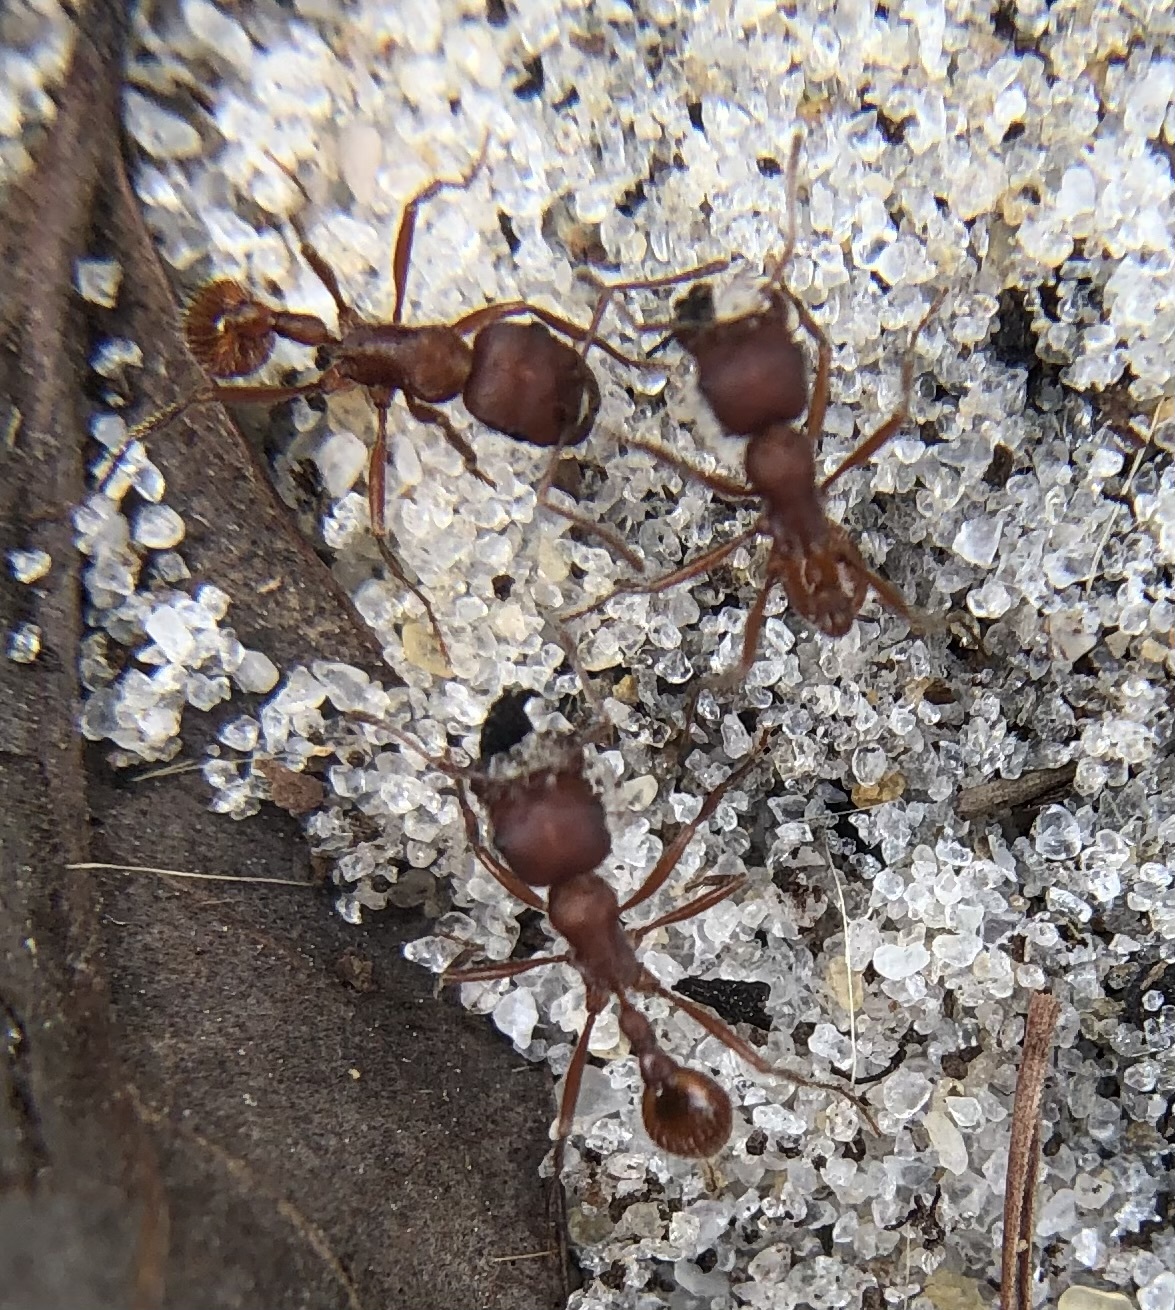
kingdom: Animalia
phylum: Arthropoda
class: Insecta
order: Hymenoptera
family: Formicidae
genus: Pogonomyrmex
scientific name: Pogonomyrmex badius
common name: Florida harvester ant
